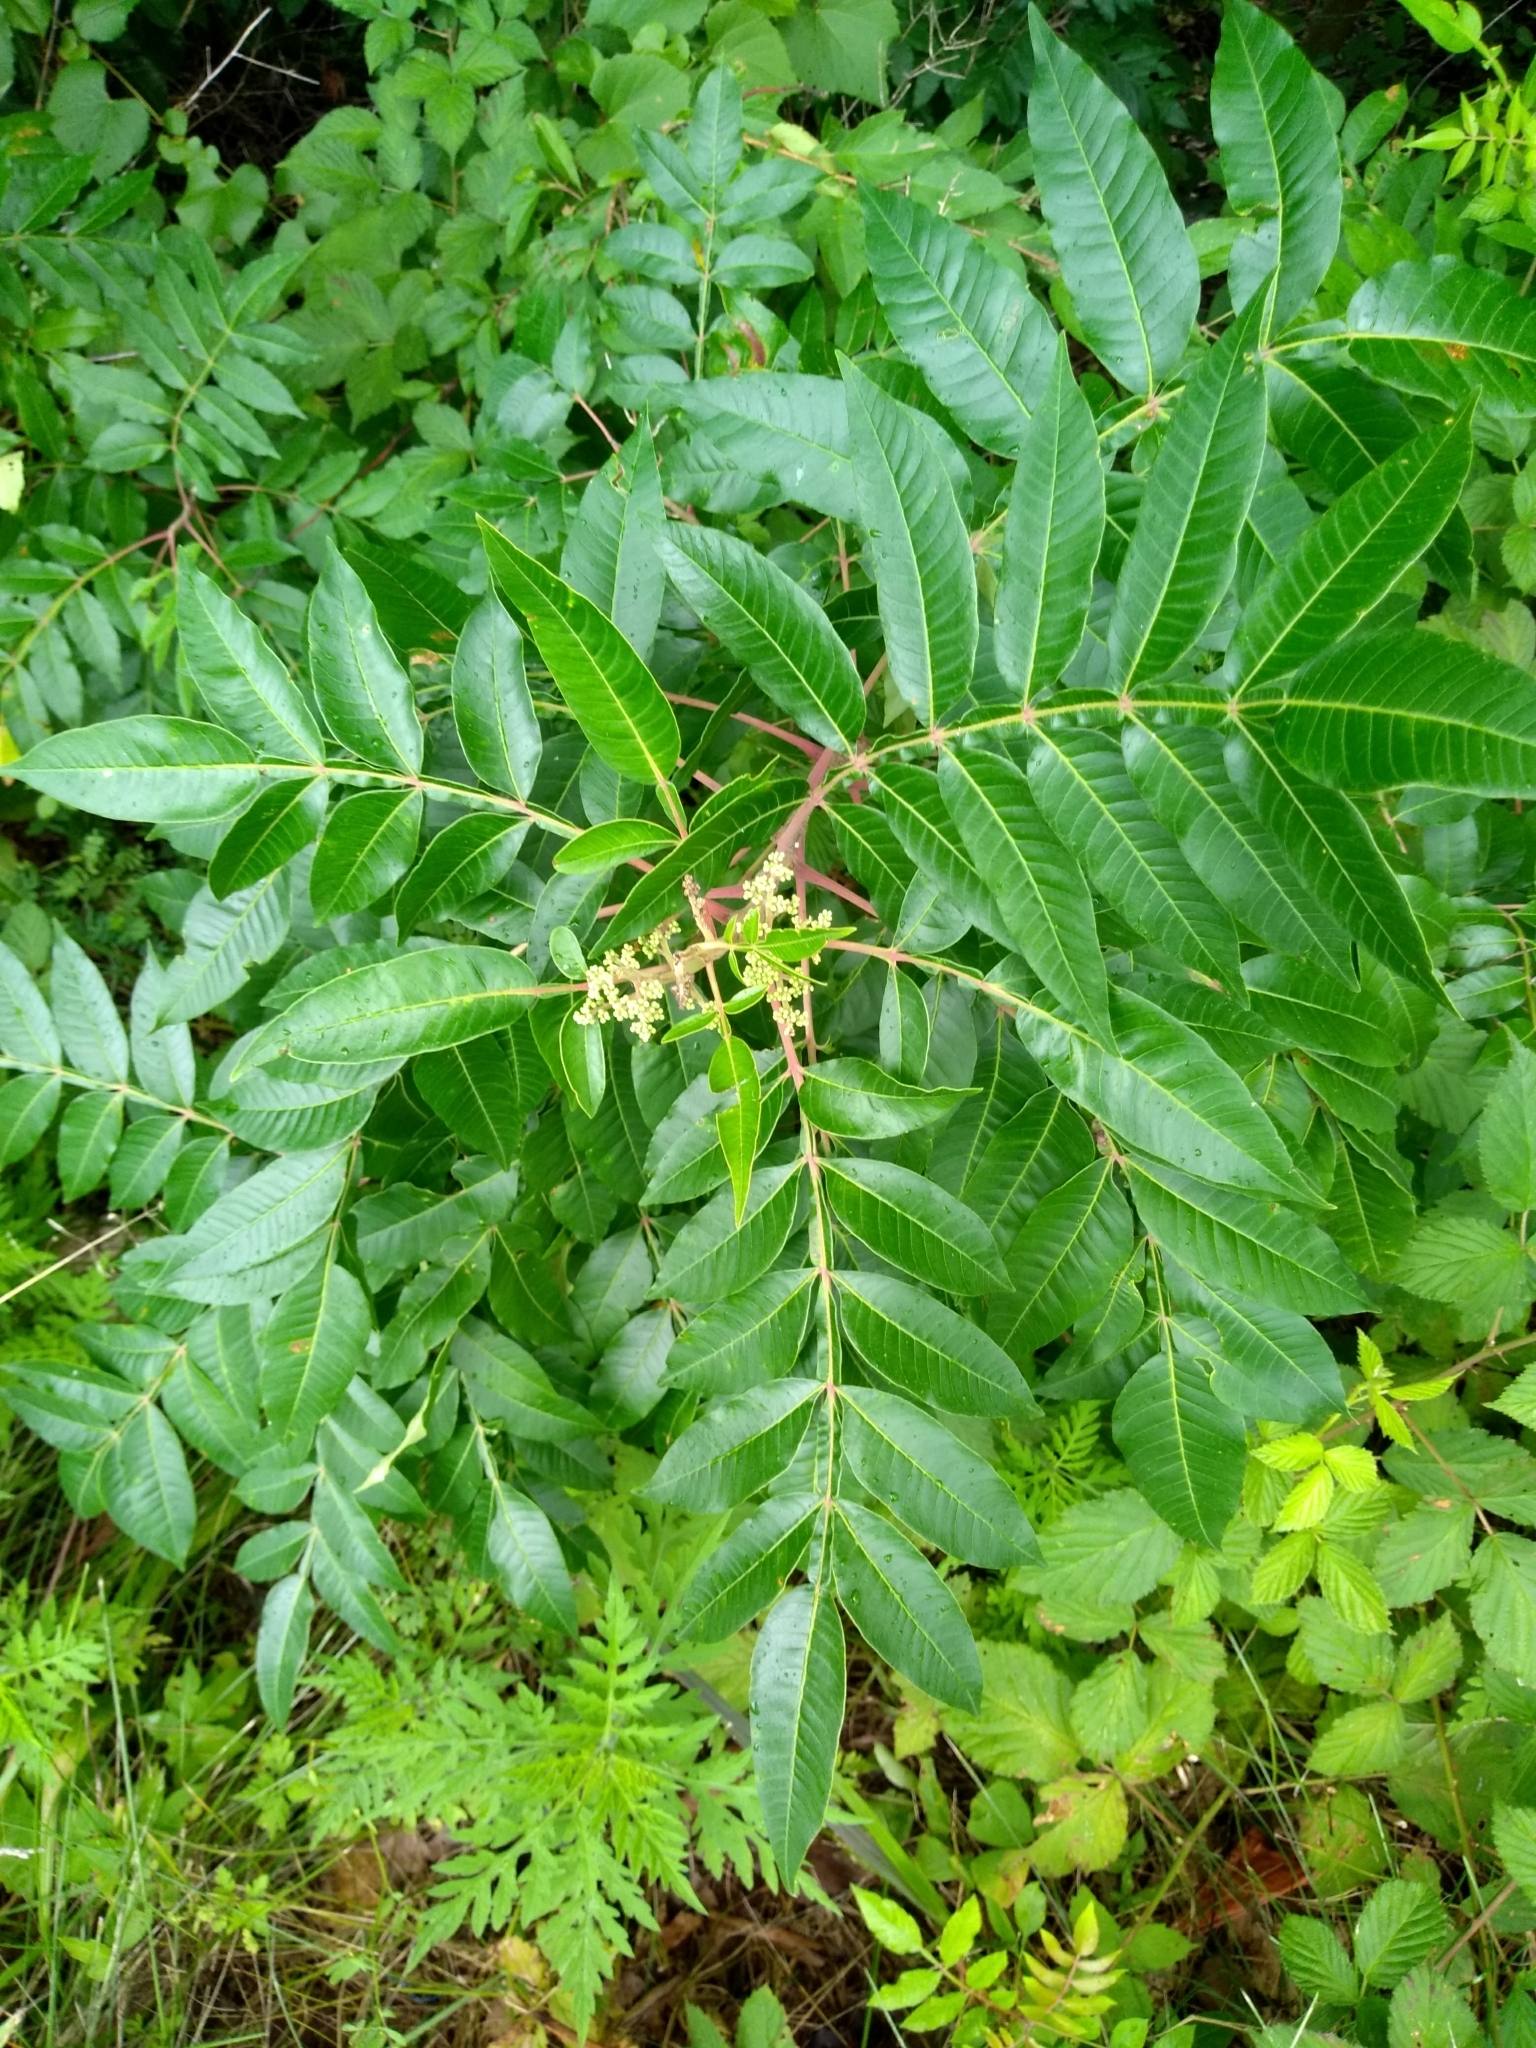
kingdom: Plantae
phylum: Tracheophyta
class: Magnoliopsida
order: Sapindales
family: Anacardiaceae
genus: Rhus
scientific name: Rhus copallina
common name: Shining sumac
